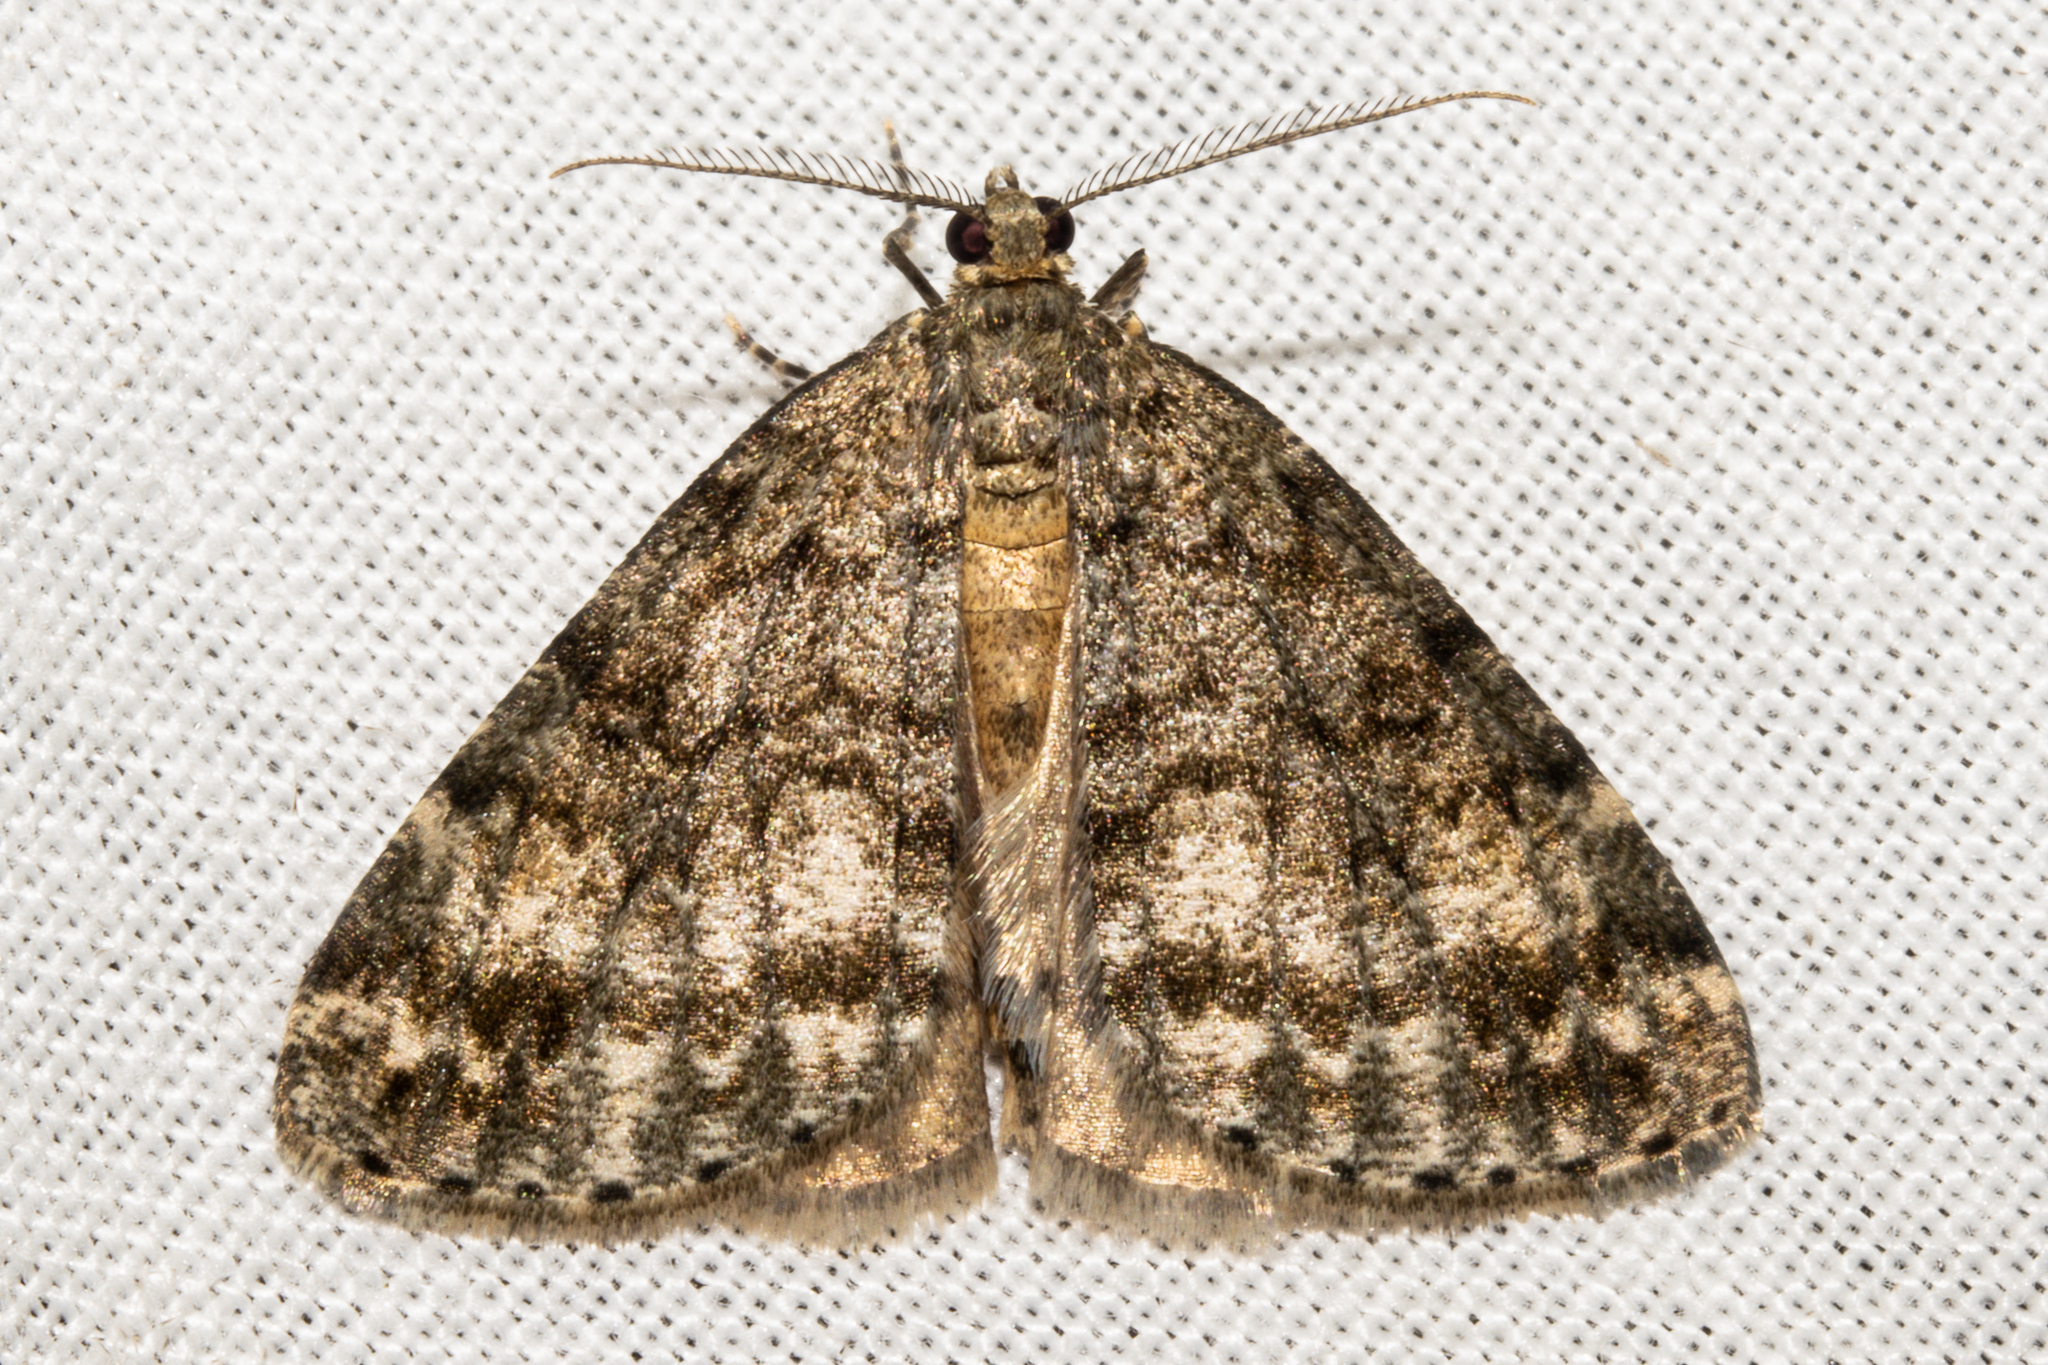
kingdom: Animalia
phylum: Arthropoda
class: Insecta
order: Lepidoptera
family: Geometridae
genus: Pseudocoremia
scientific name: Pseudocoremia indistincta
